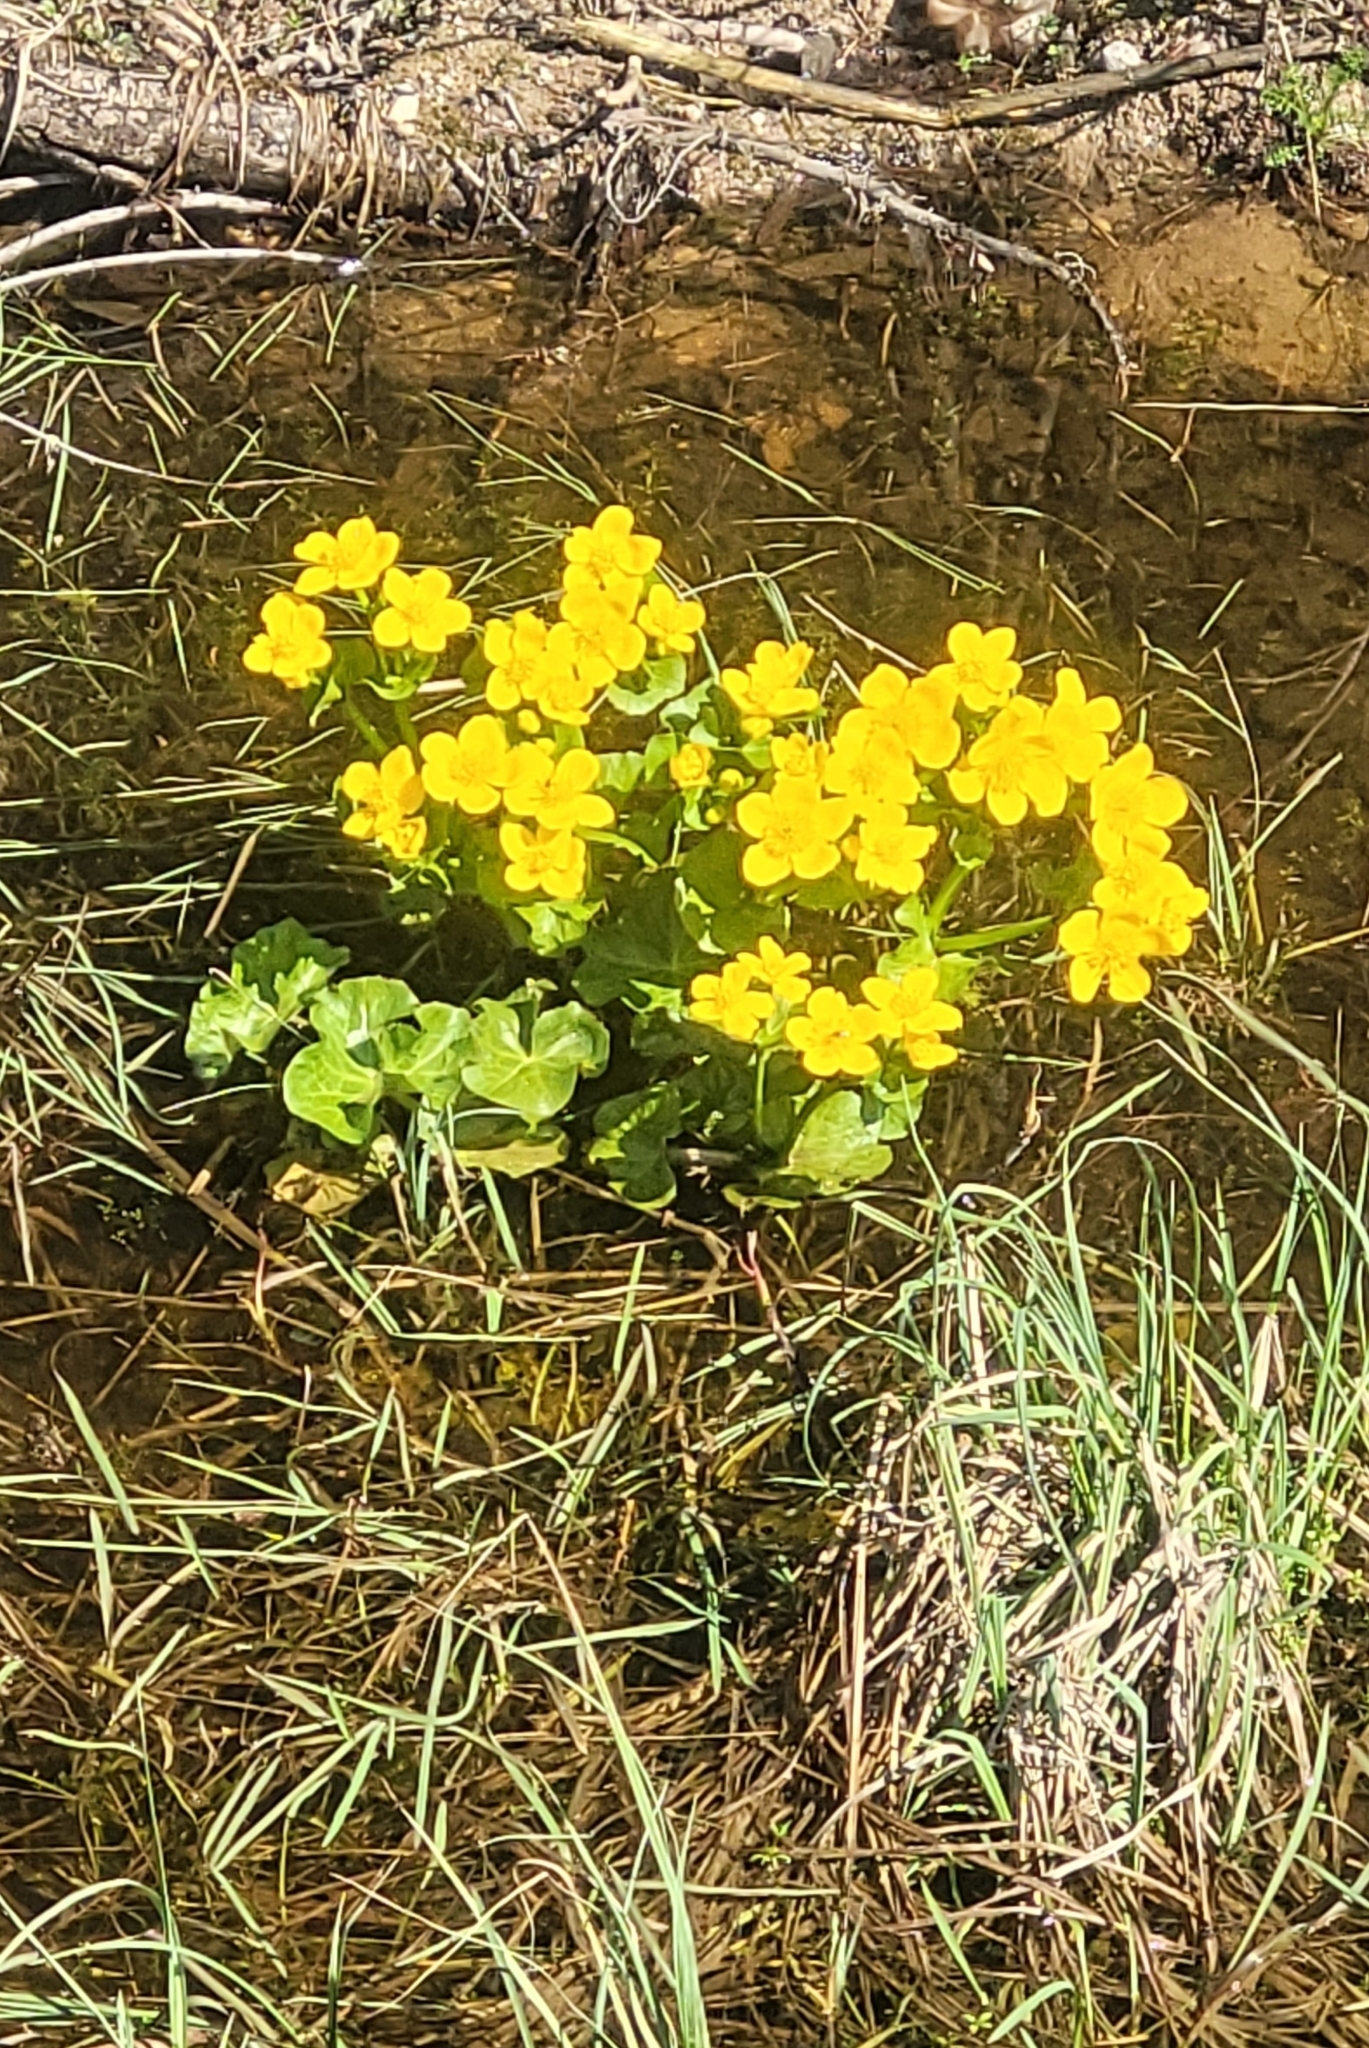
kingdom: Plantae
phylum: Tracheophyta
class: Magnoliopsida
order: Ranunculales
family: Ranunculaceae
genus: Caltha
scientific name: Caltha palustris
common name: Marsh marigold
